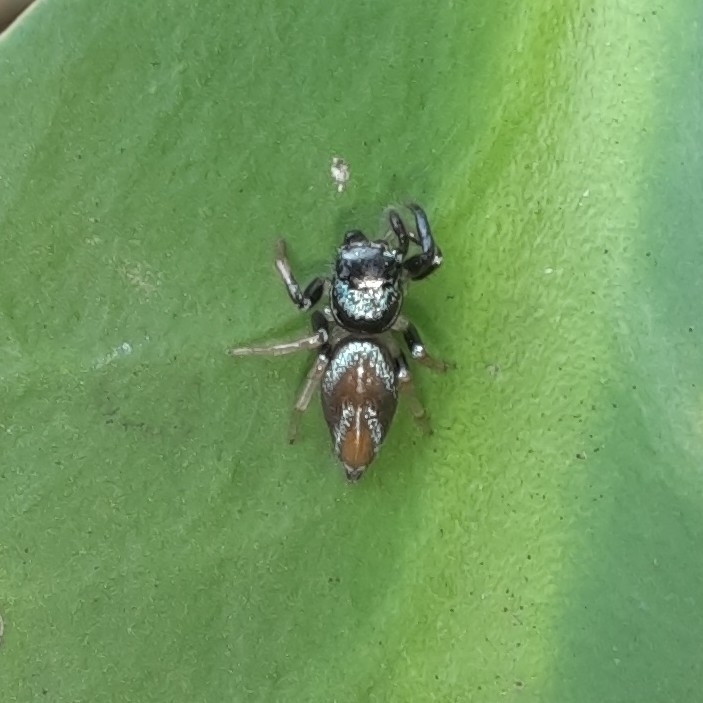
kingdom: Animalia
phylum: Arthropoda
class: Arachnida
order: Araneae
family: Salticidae
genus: Thiania
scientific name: Thiania bhamoensis
